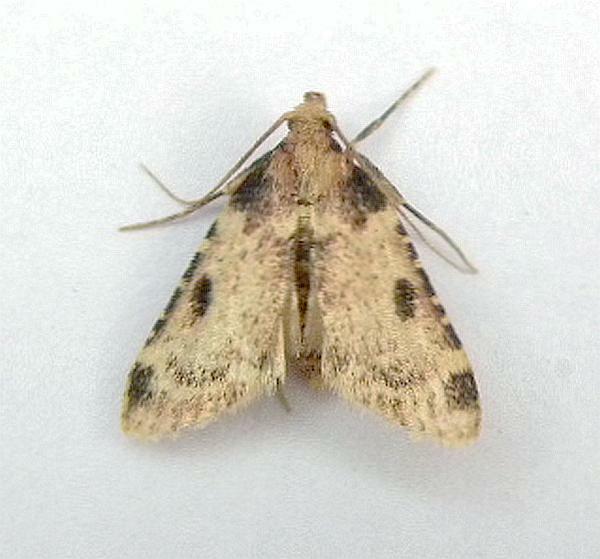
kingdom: Animalia
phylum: Arthropoda
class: Insecta
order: Lepidoptera
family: Pyralidae
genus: Aglossa
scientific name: Aglossa costiferalis
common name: Calico pyralid moth
